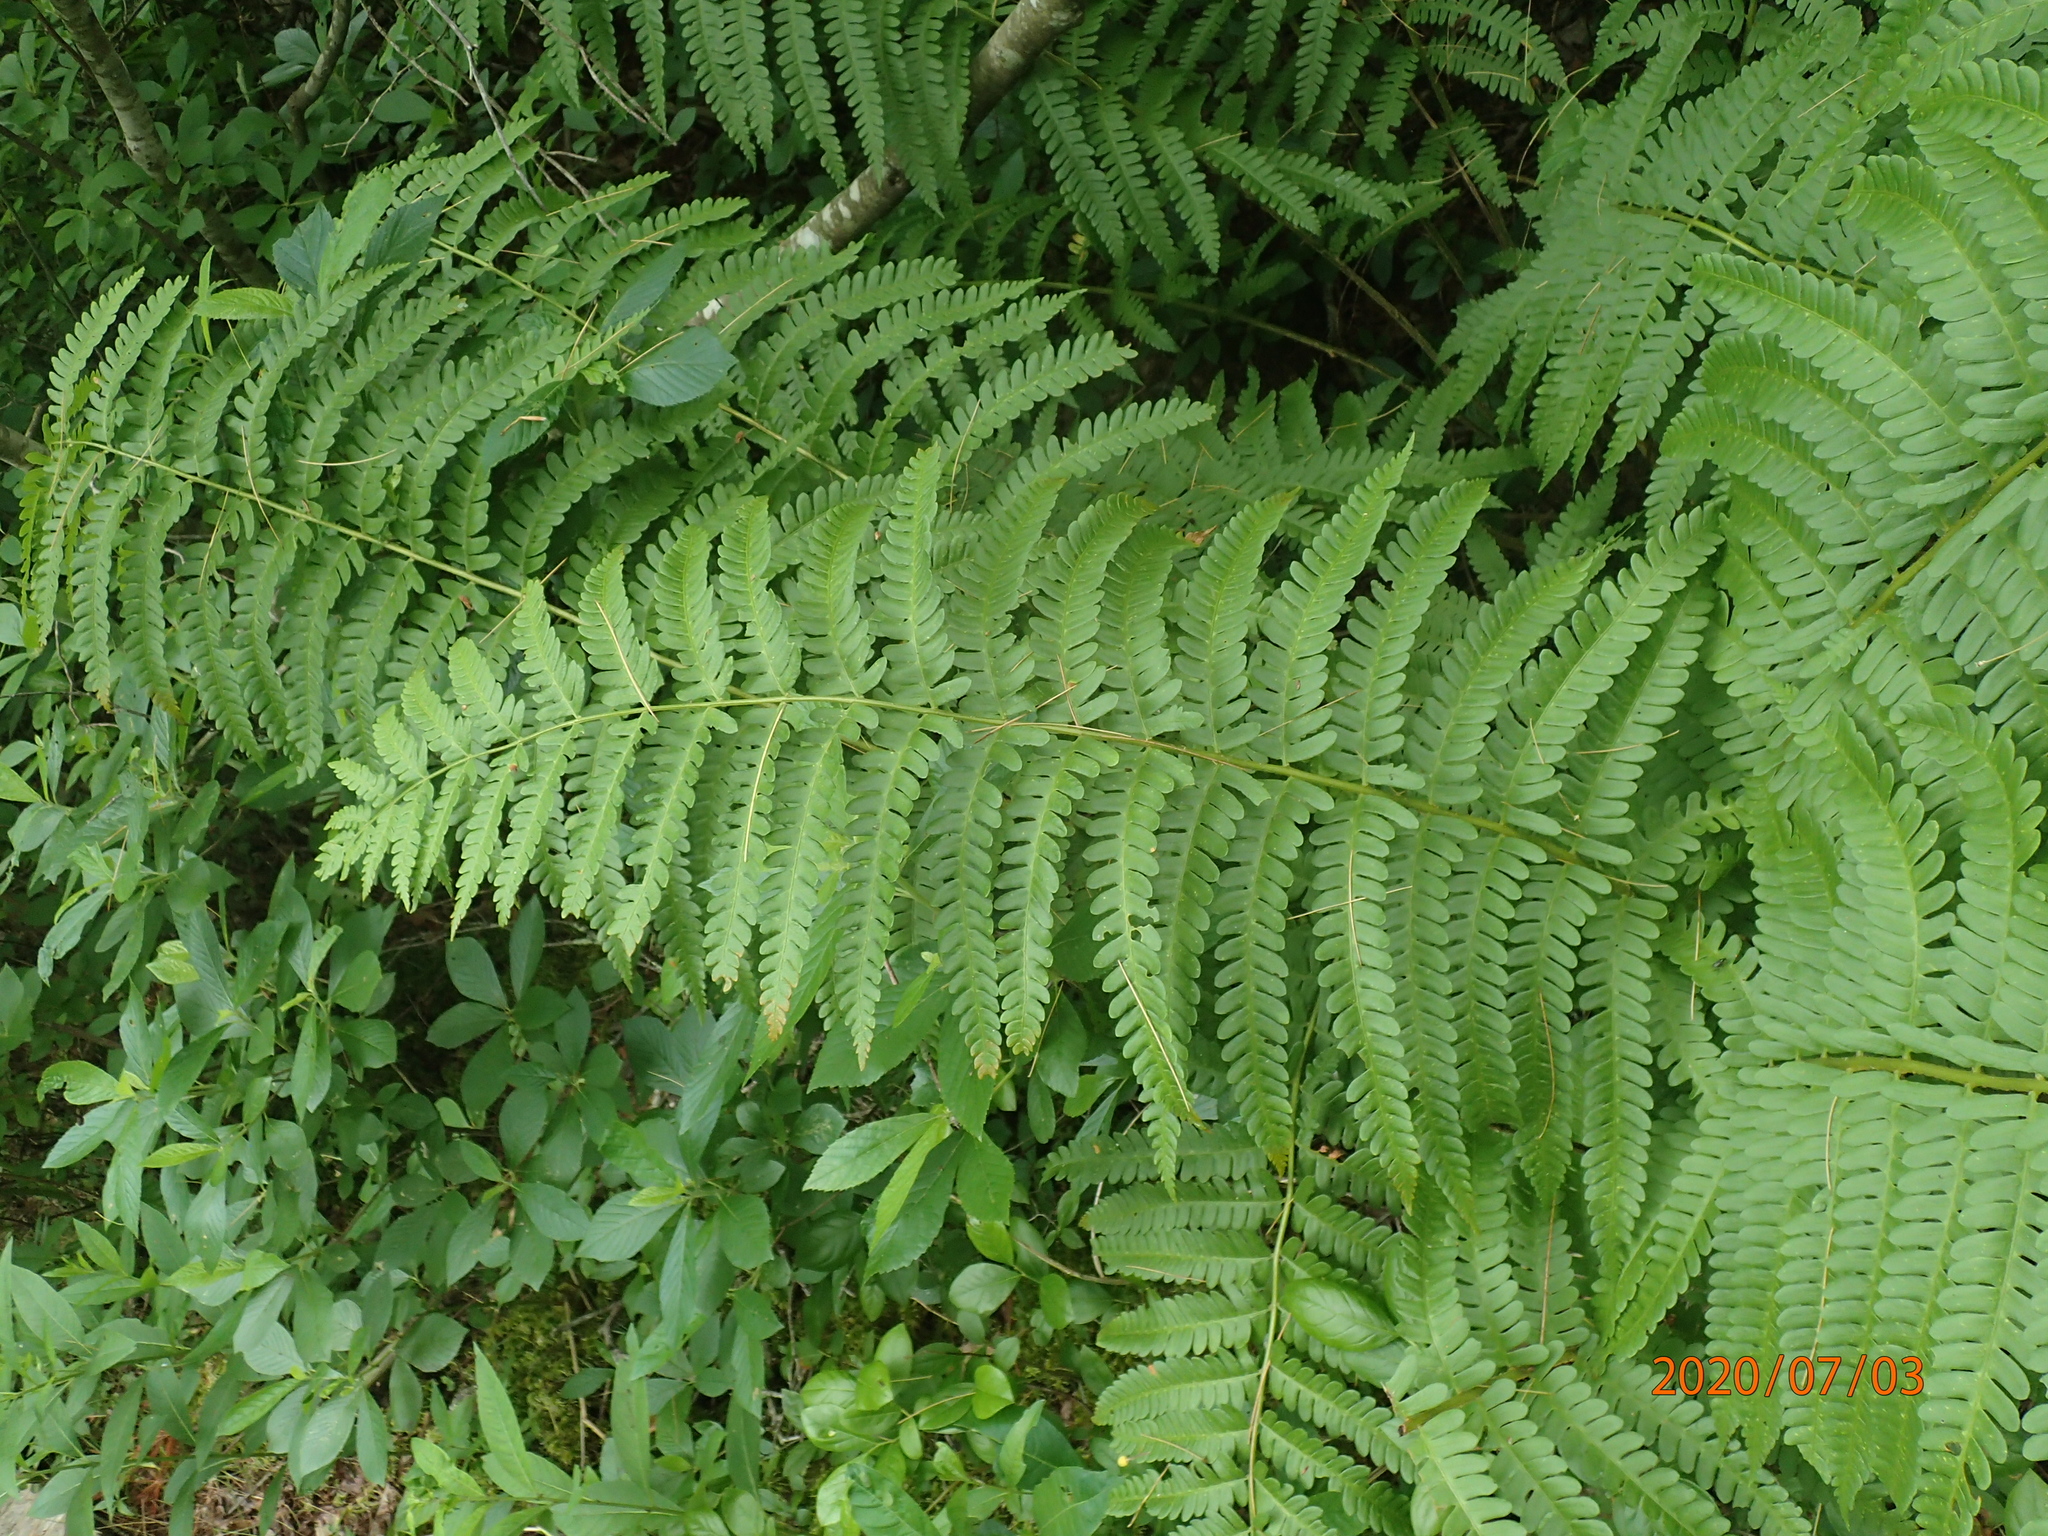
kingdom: Plantae
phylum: Tracheophyta
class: Polypodiopsida
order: Osmundales
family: Osmundaceae
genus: Osmundastrum
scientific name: Osmundastrum cinnamomeum
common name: Cinnamon fern
